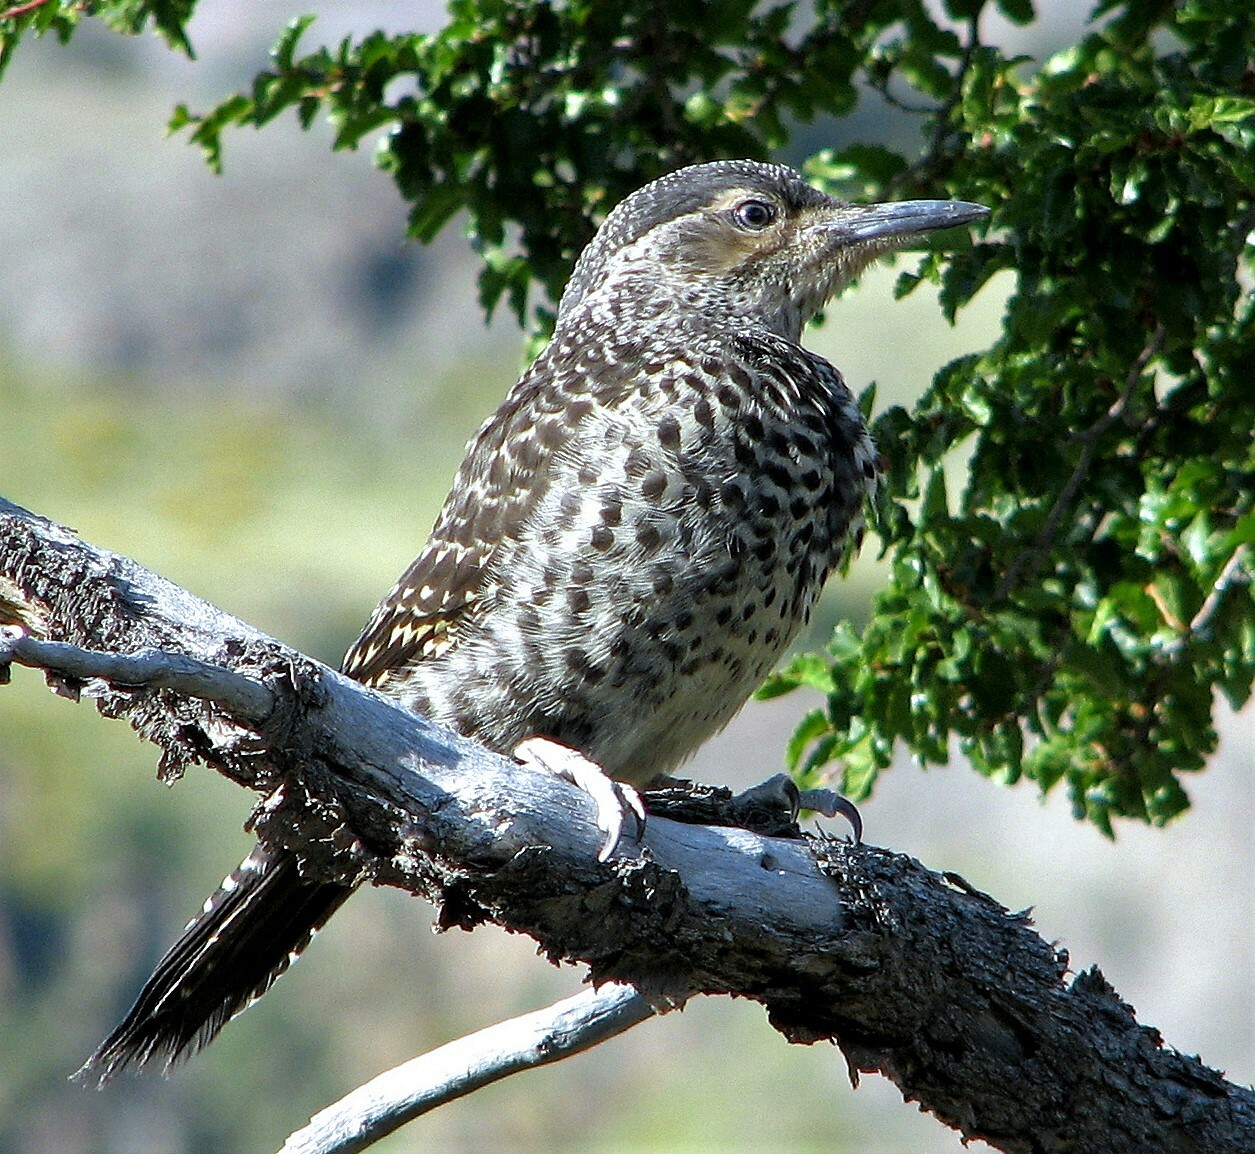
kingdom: Animalia
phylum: Chordata
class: Aves
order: Piciformes
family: Picidae
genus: Colaptes
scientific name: Colaptes pitius
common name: Chilean flicker
